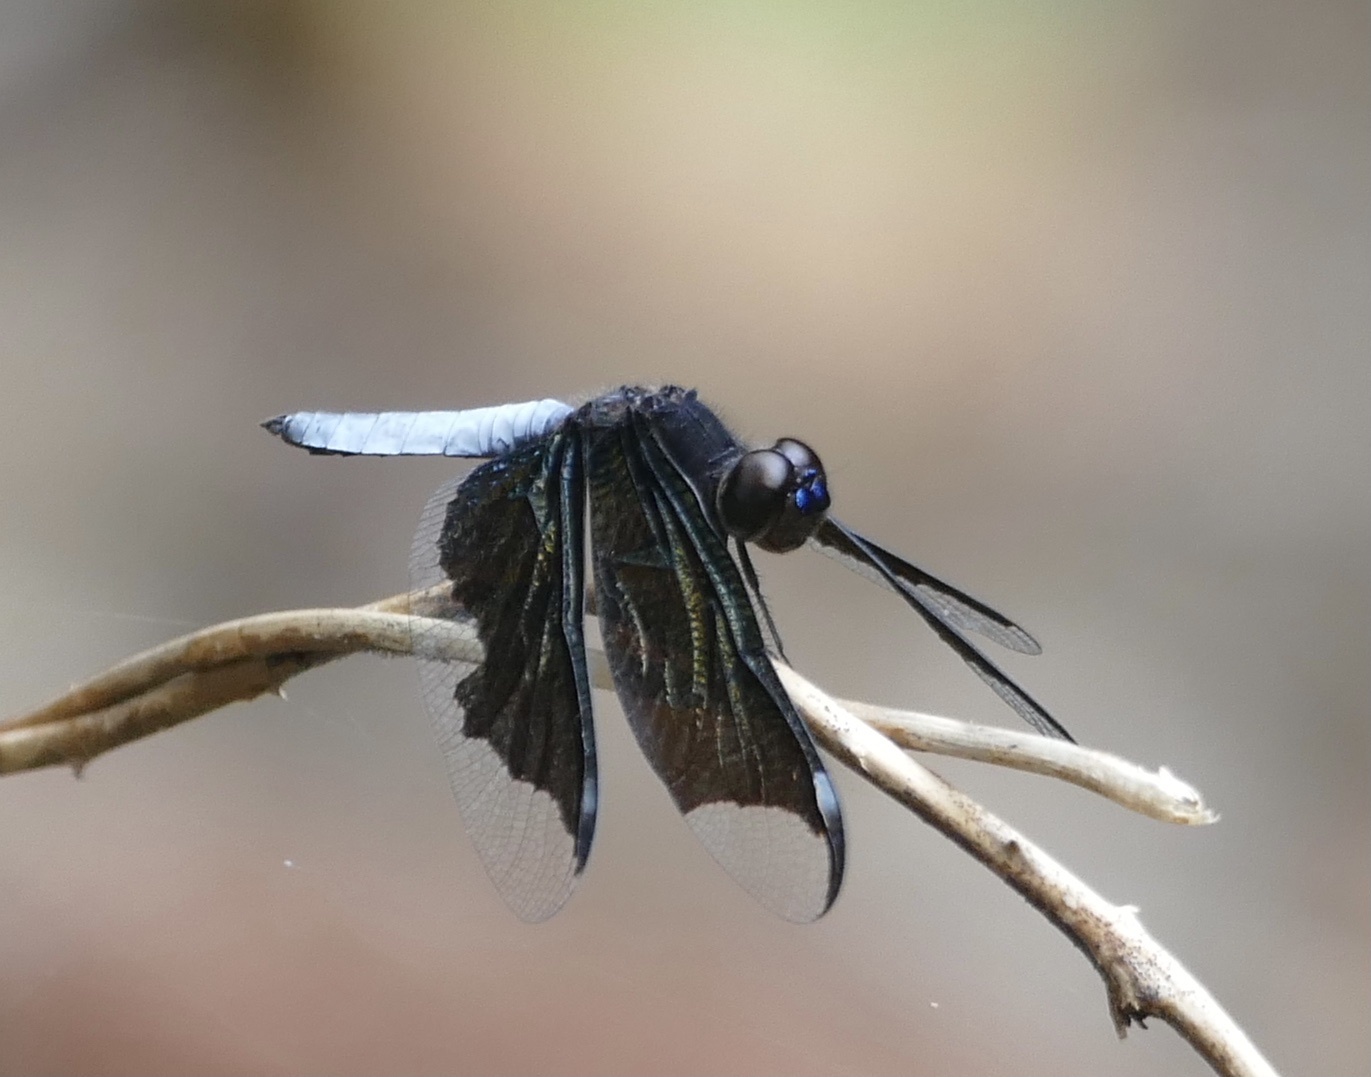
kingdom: Animalia
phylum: Arthropoda
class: Insecta
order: Odonata
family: Libellulidae
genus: Palpopleura
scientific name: Palpopleura lucia
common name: Lucia widow
